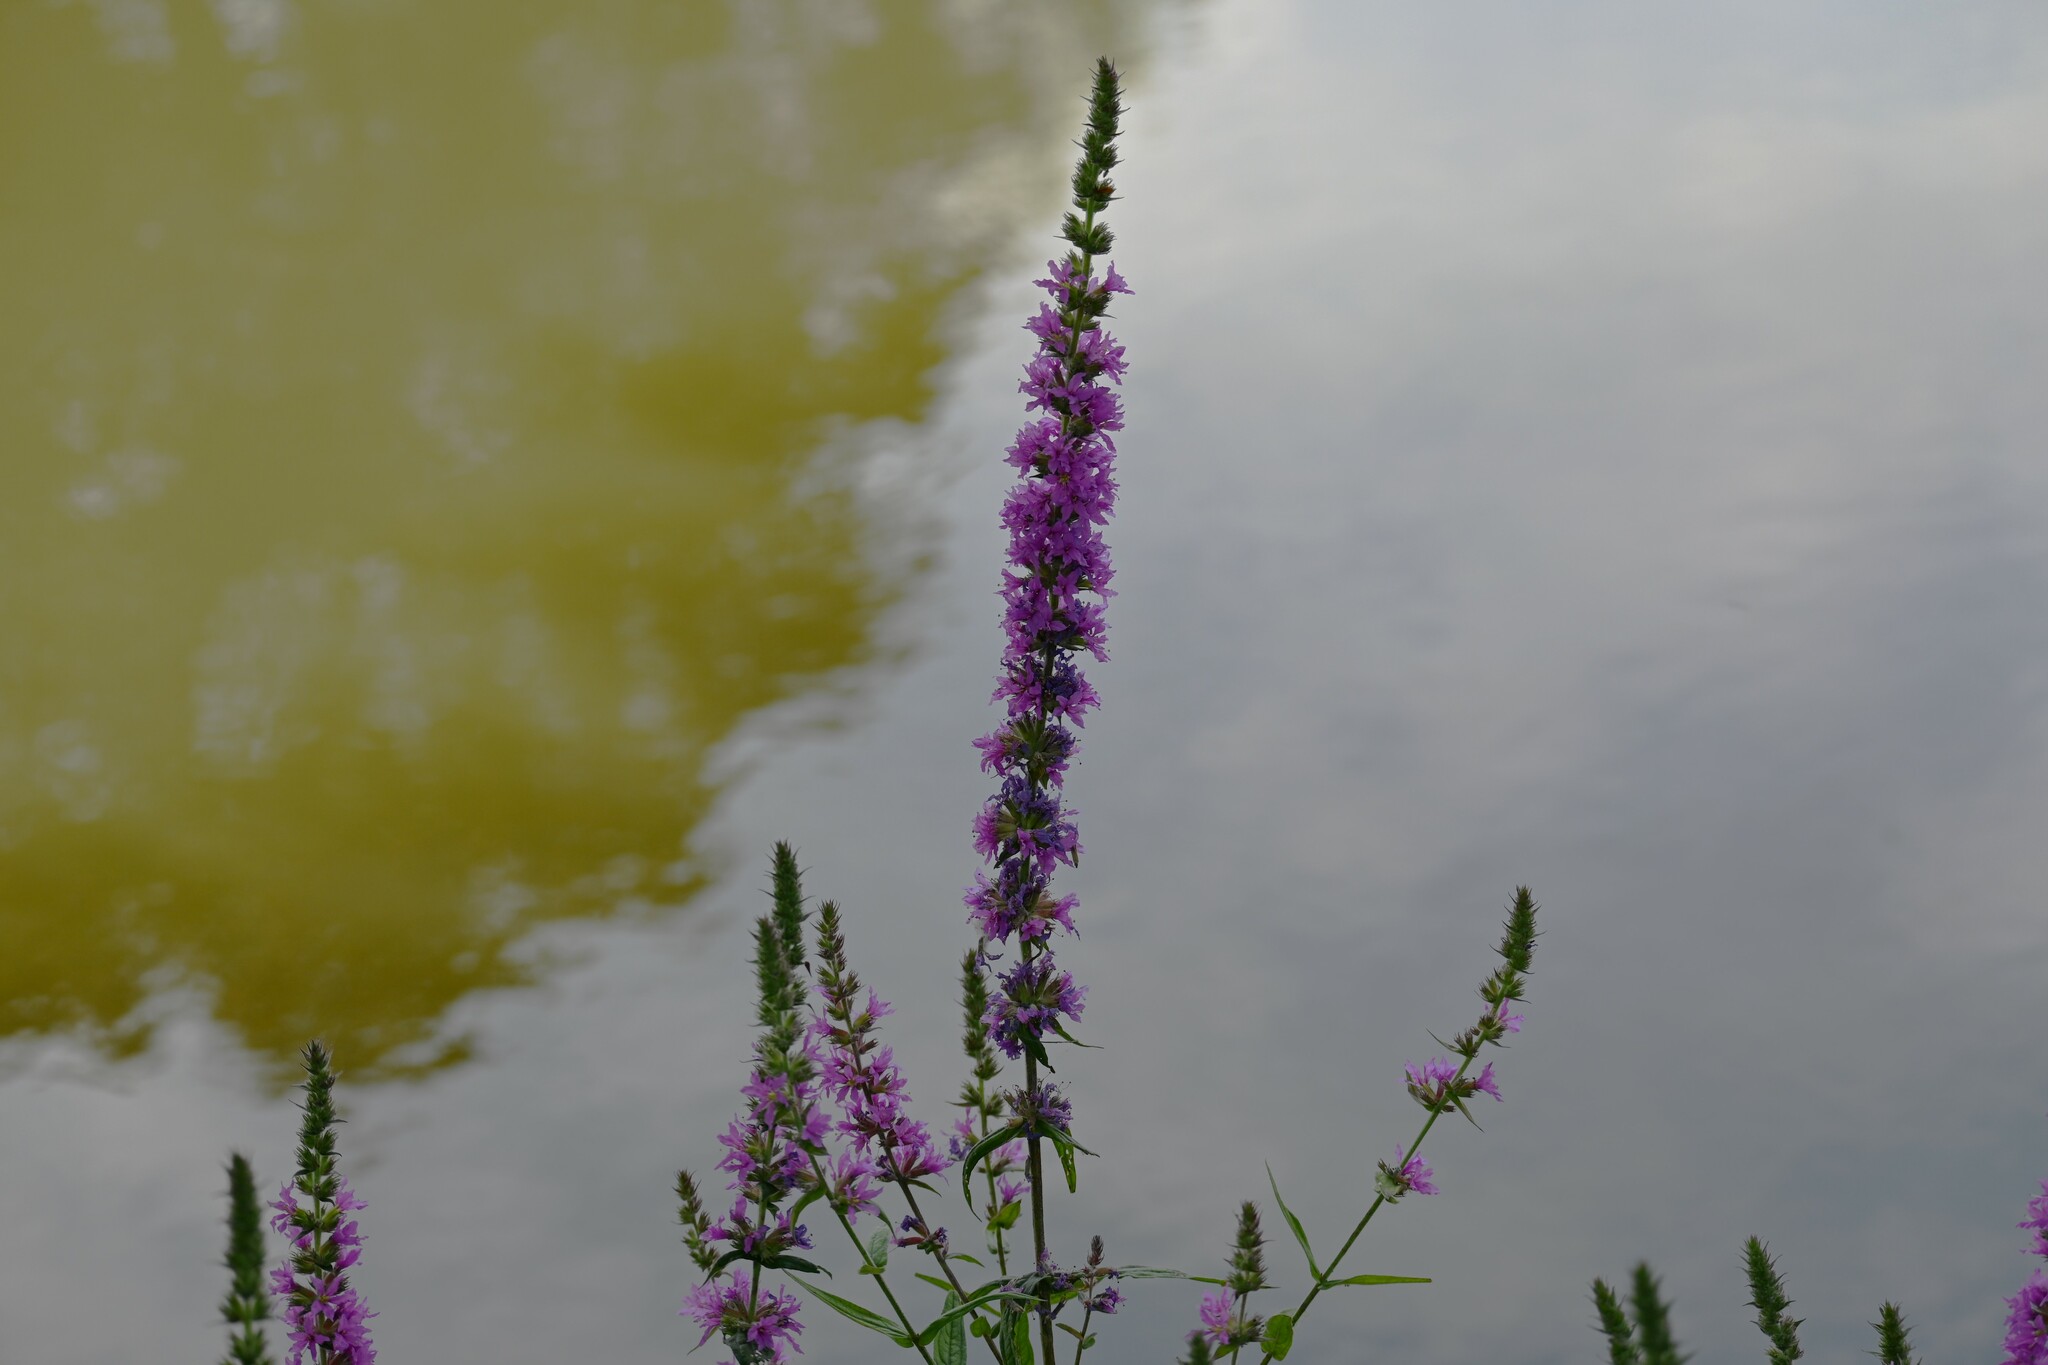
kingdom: Plantae
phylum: Tracheophyta
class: Magnoliopsida
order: Myrtales
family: Lythraceae
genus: Lythrum
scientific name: Lythrum salicaria
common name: Purple loosestrife
